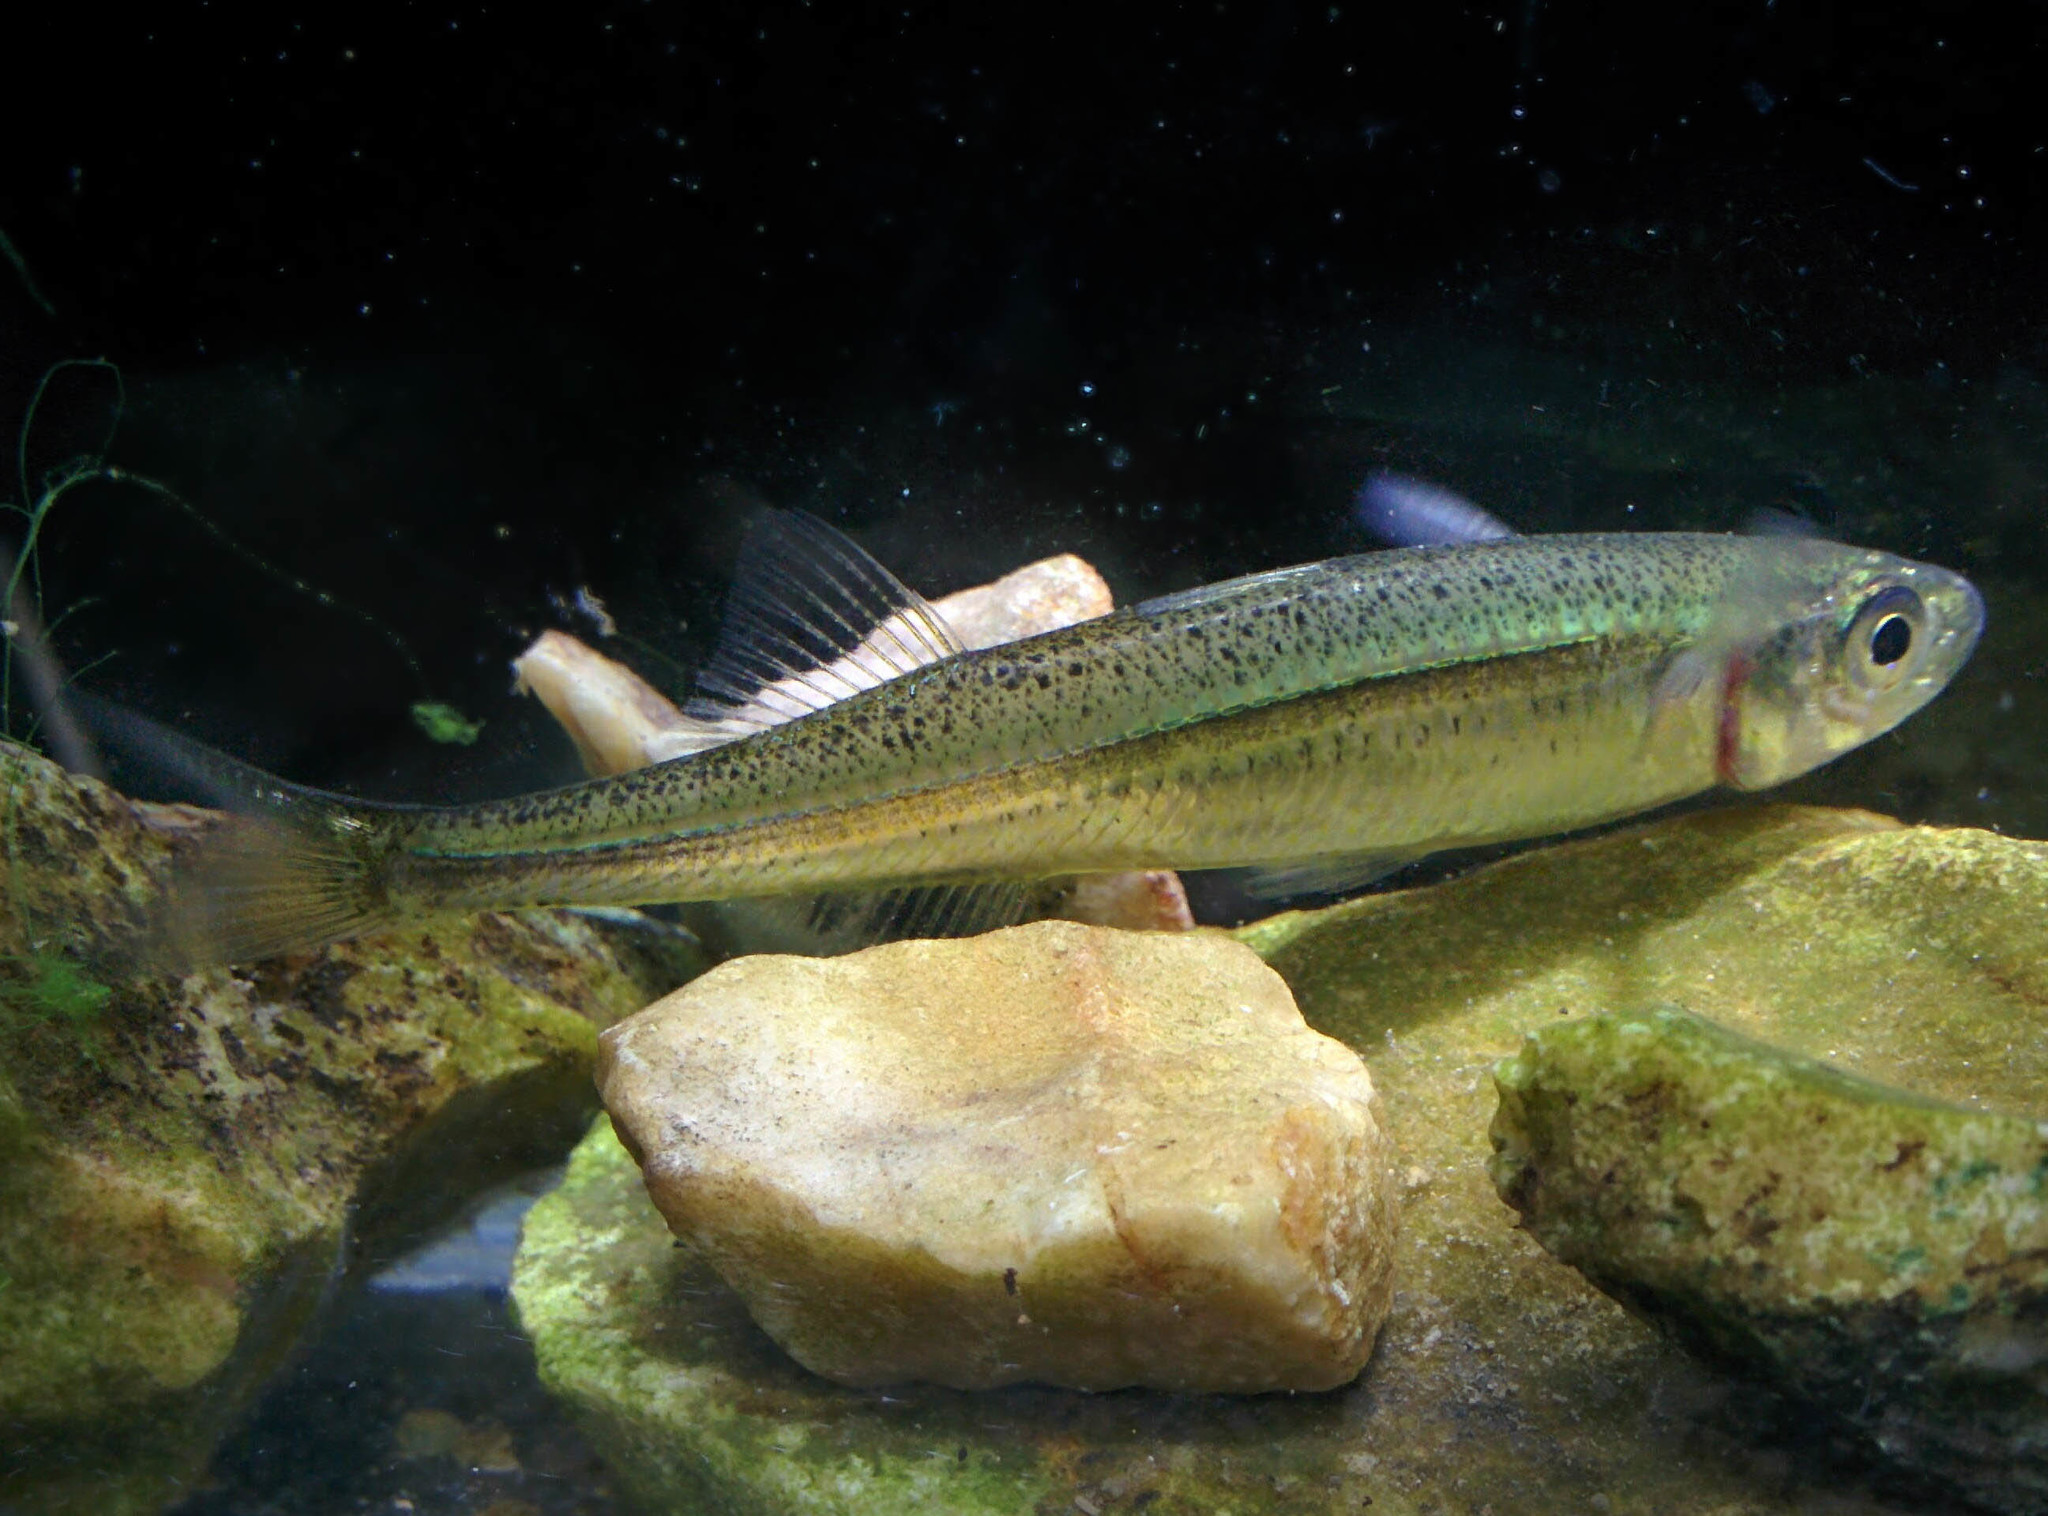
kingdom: Animalia
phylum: Chordata
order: Atheriniformes
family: Atherinidae
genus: Atherina
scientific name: Atherina boyeri
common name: Big-scale sand smelt
